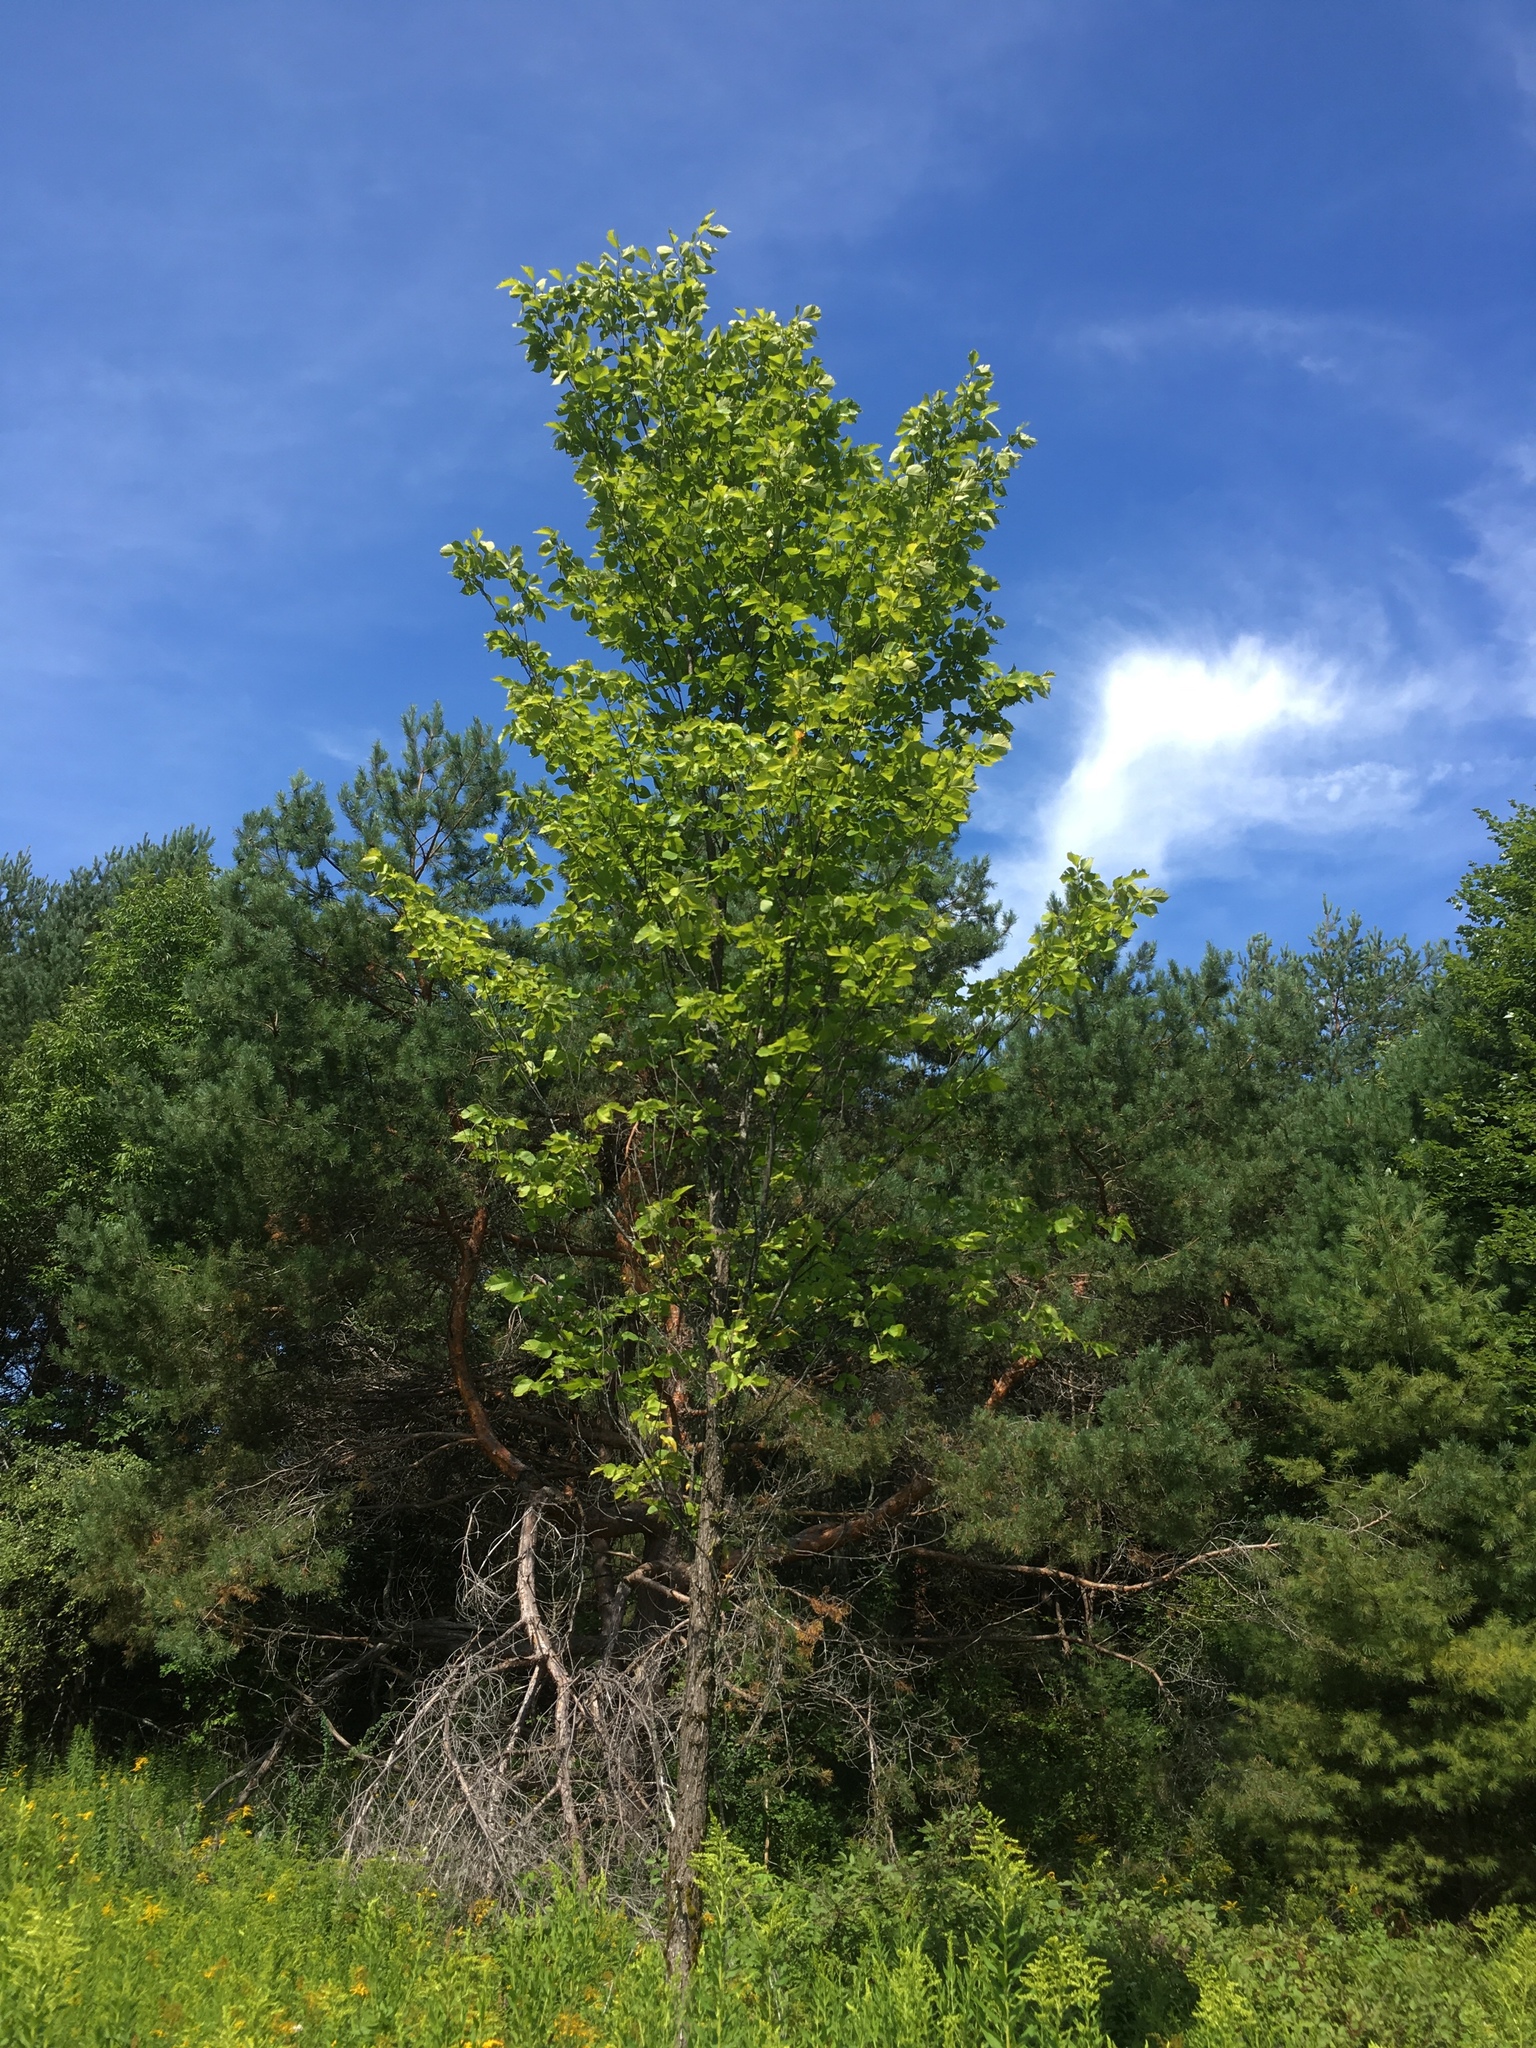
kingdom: Plantae
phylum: Tracheophyta
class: Magnoliopsida
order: Rosales
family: Ulmaceae
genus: Ulmus
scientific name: Ulmus americana
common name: American elm
